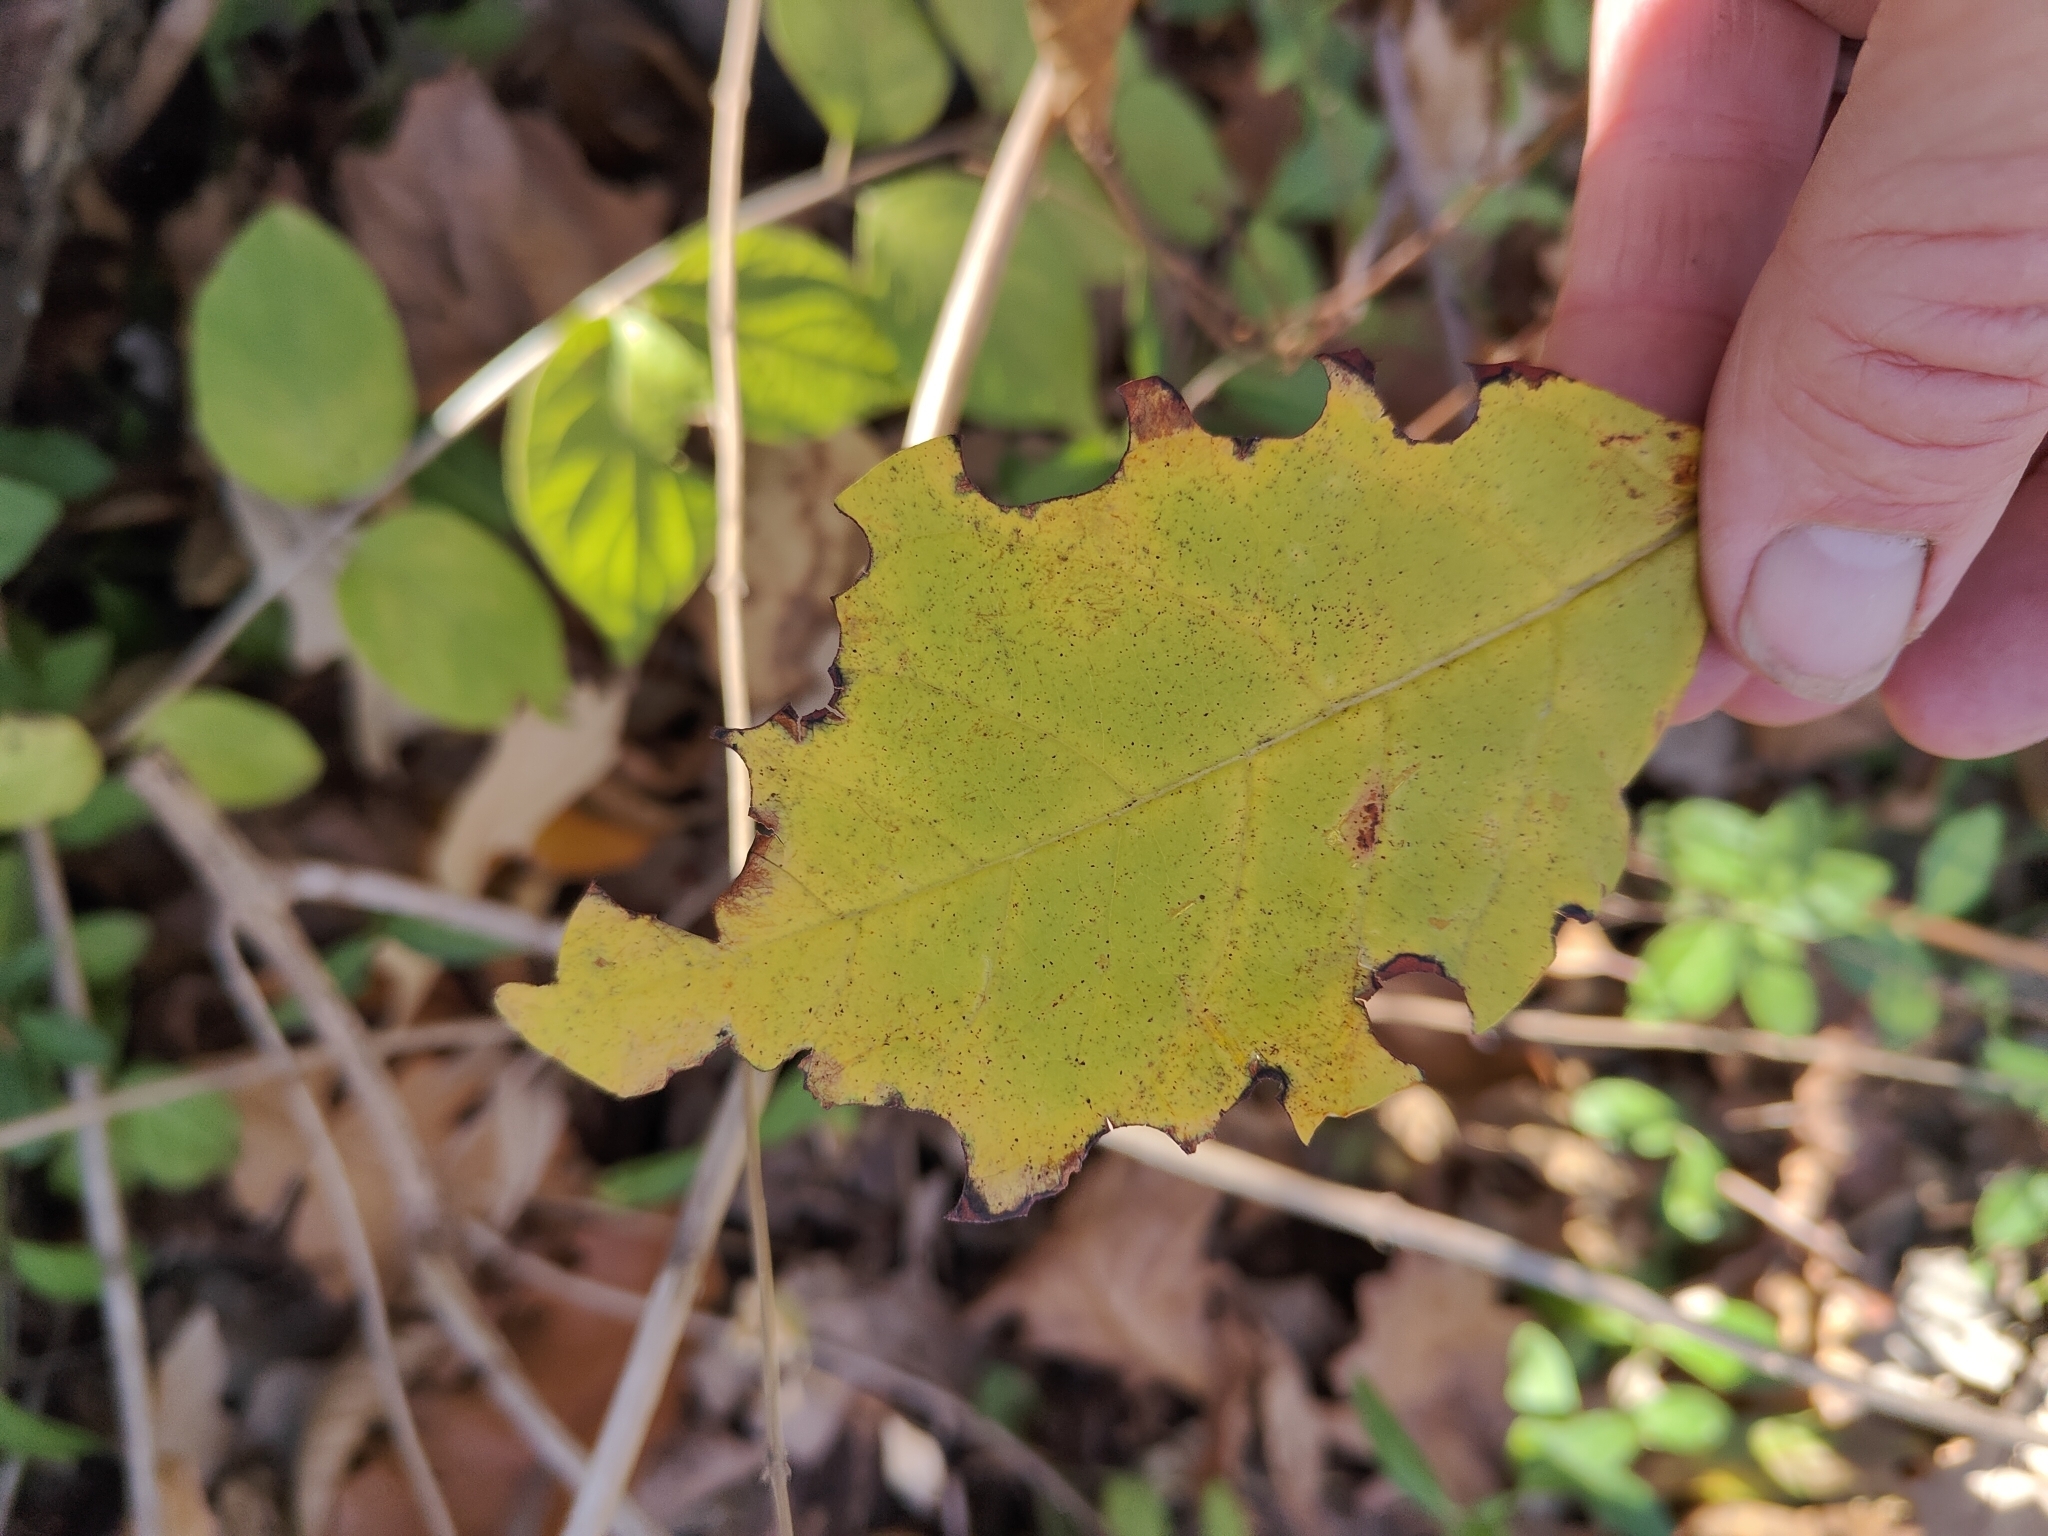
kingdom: Plantae
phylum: Tracheophyta
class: Magnoliopsida
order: Ericales
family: Ebenaceae
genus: Diospyros
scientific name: Diospyros virginiana
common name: Persimmon
